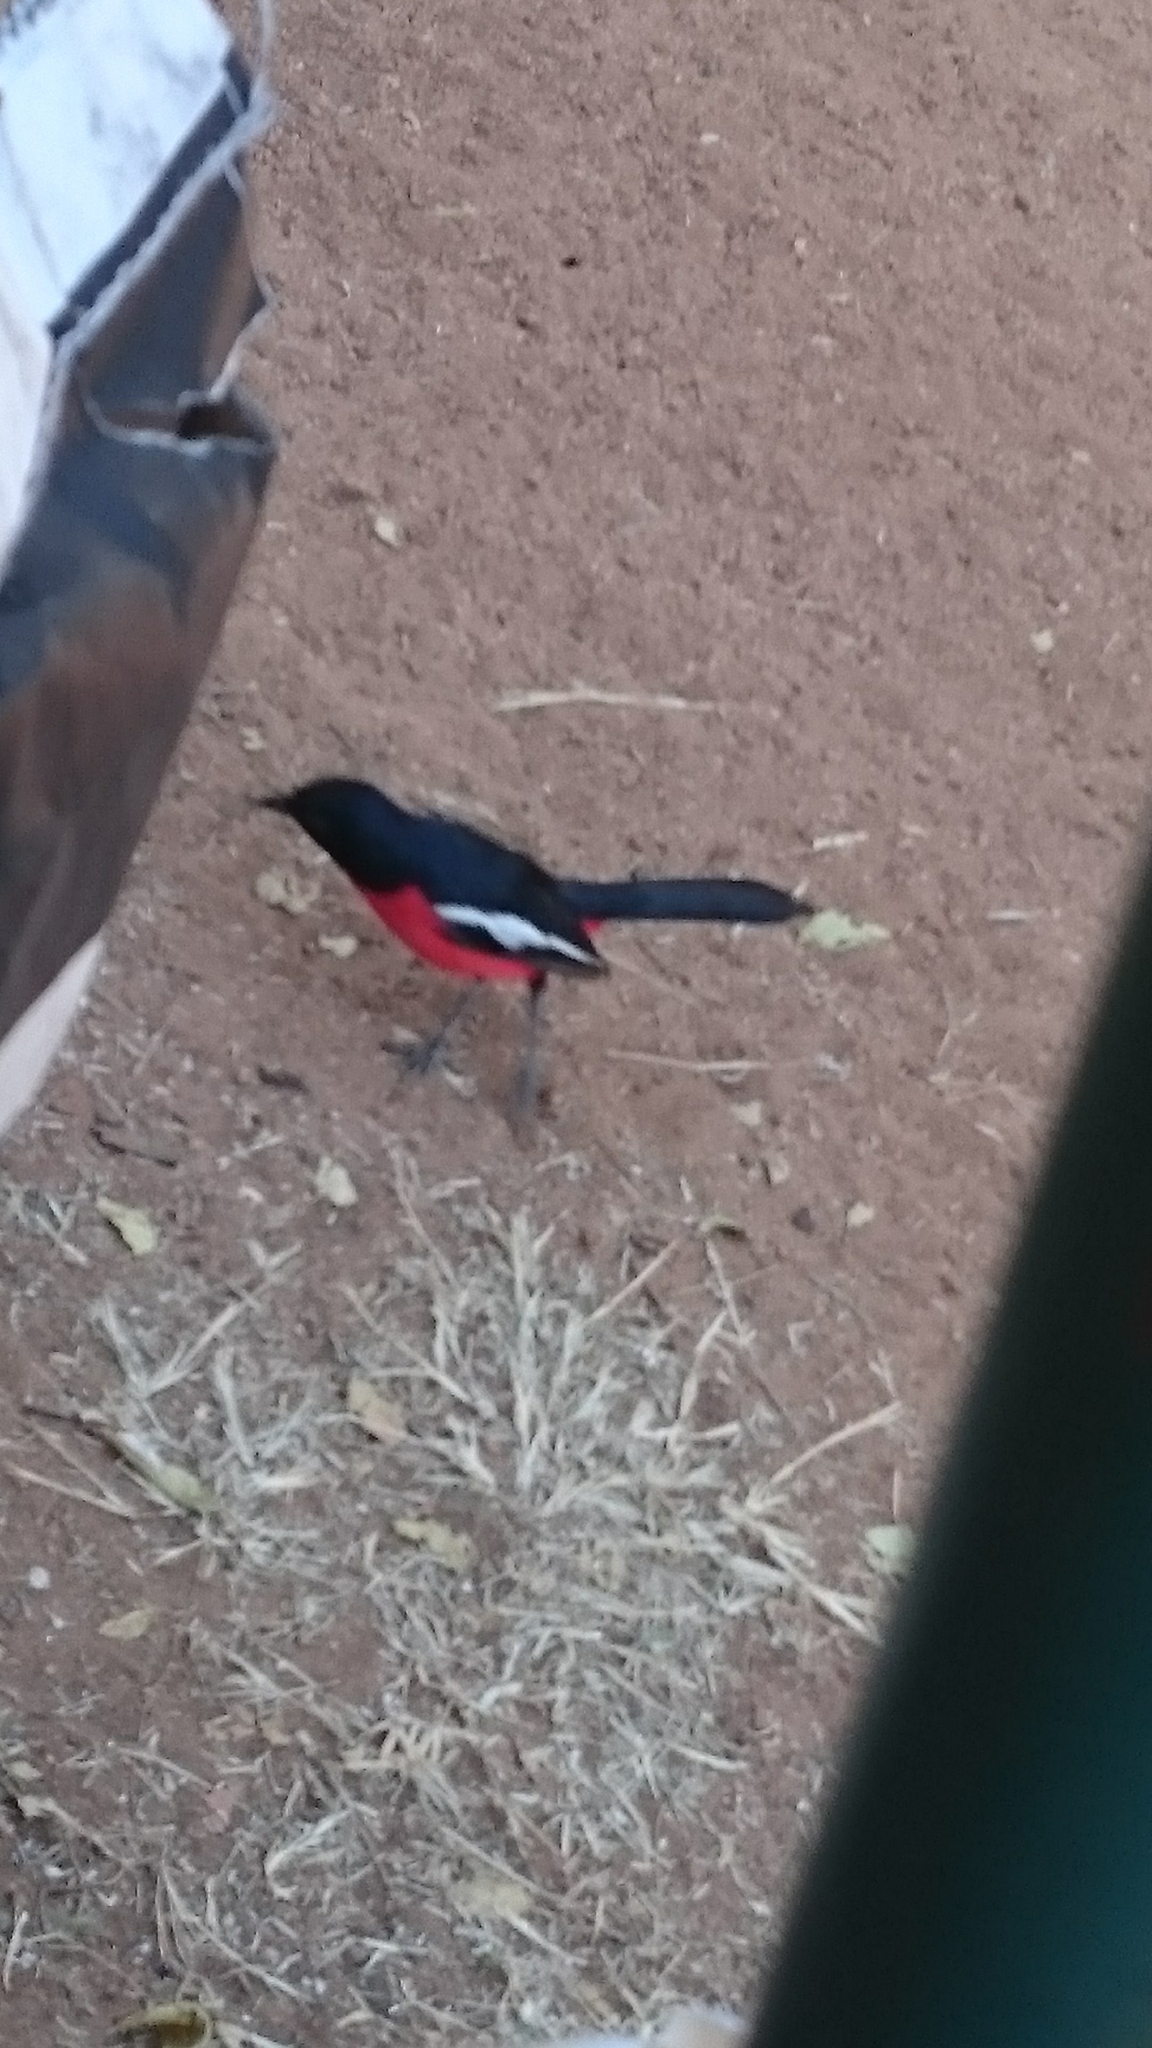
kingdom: Animalia
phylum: Chordata
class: Aves
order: Passeriformes
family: Malaconotidae
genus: Laniarius
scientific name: Laniarius atrococcineus
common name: Crimson-breasted shrike
